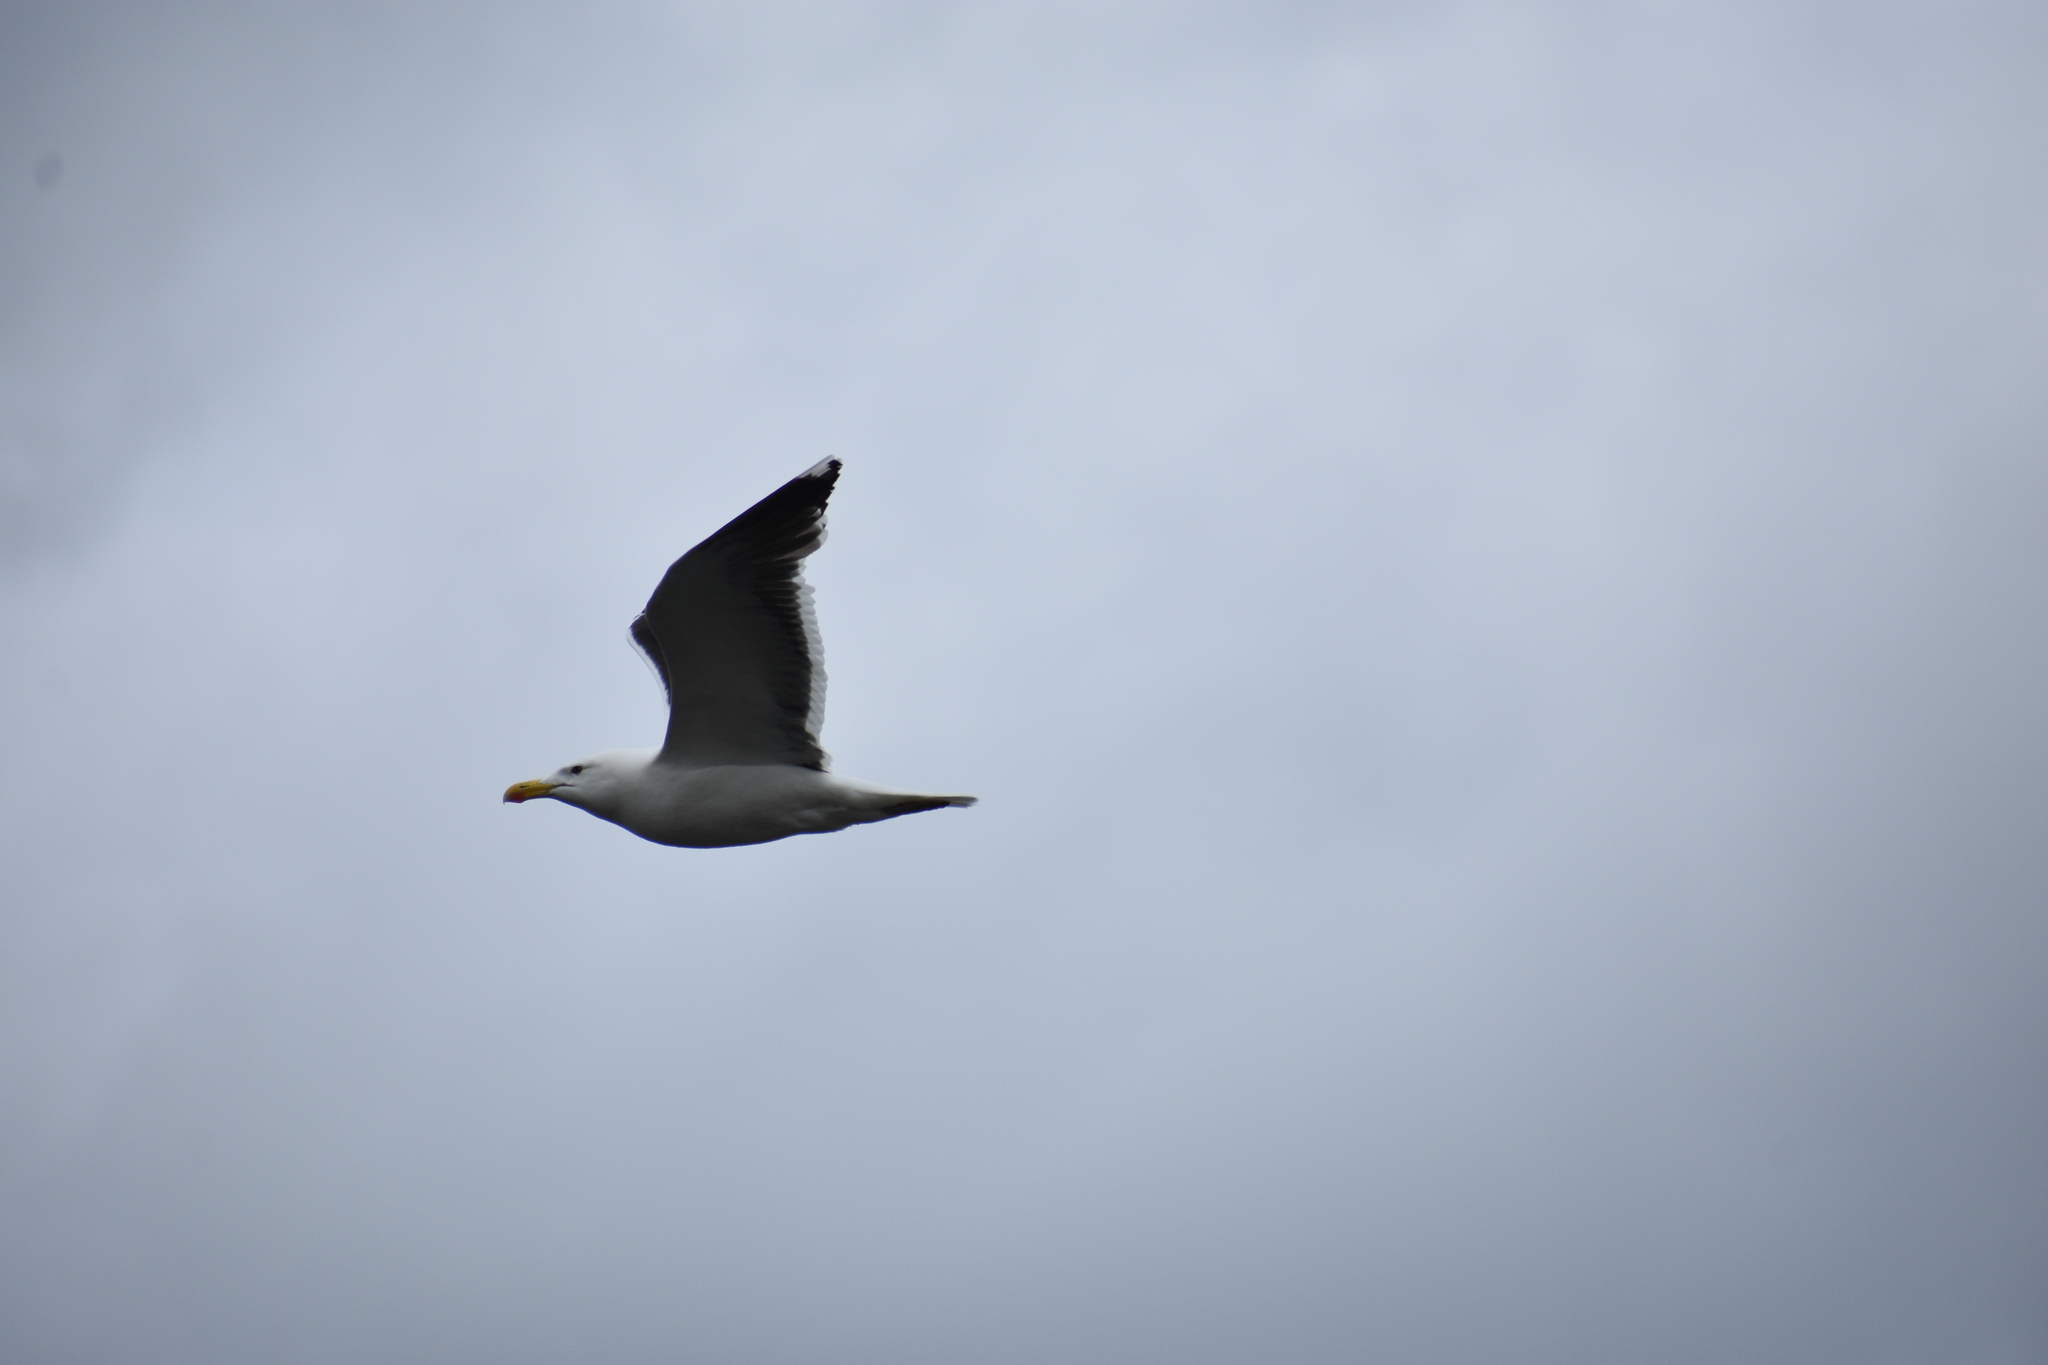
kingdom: Animalia
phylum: Chordata
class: Aves
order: Charadriiformes
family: Laridae
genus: Larus
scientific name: Larus marinus
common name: Great black-backed gull
